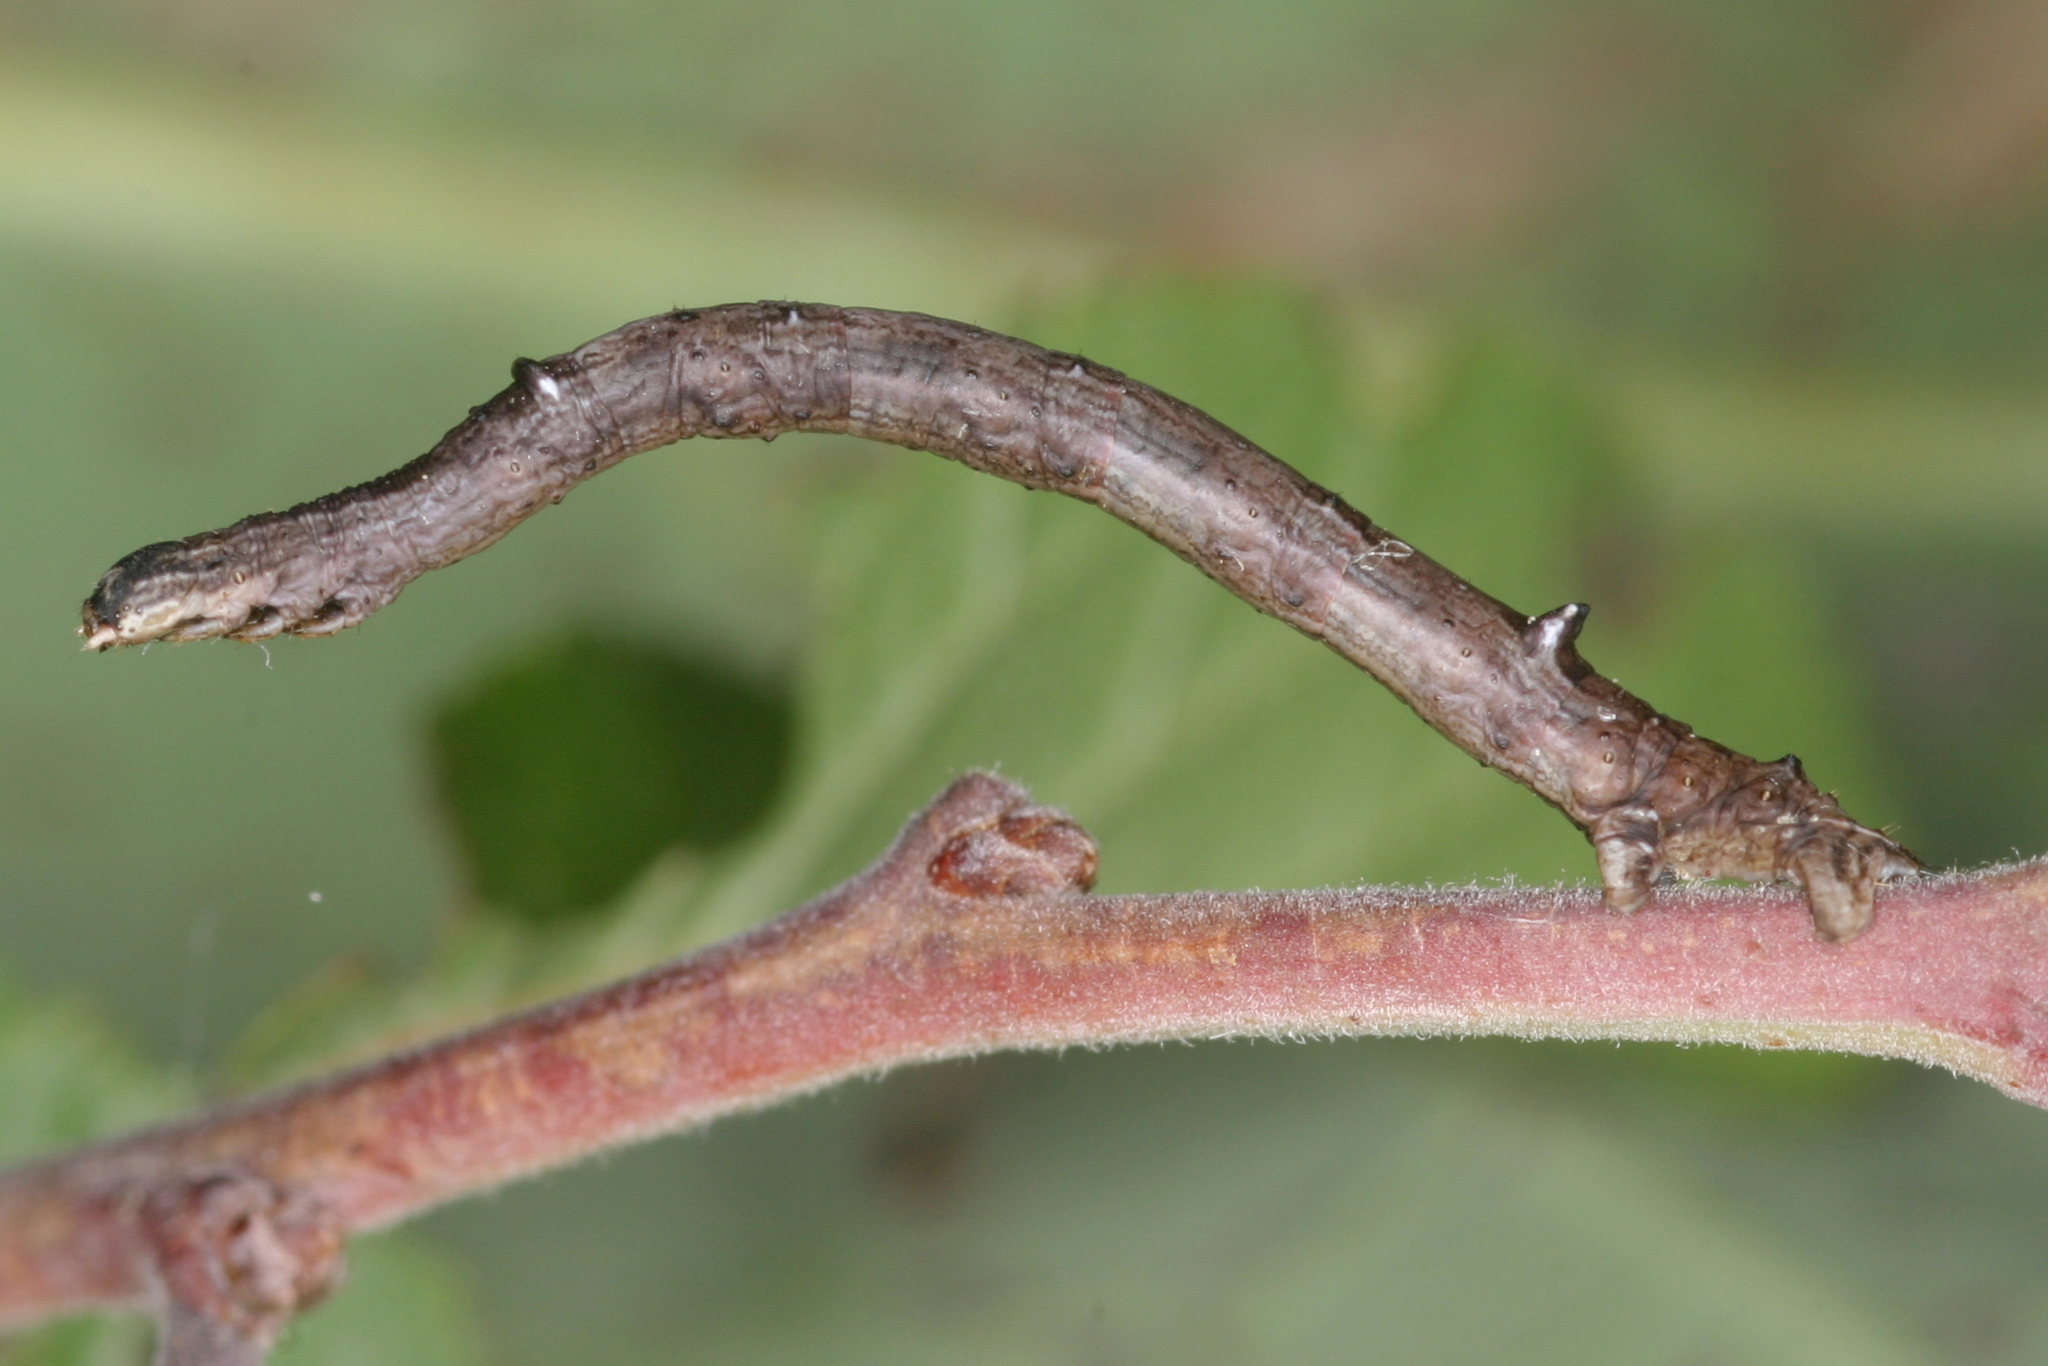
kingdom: Animalia
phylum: Arthropoda
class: Insecta
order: Lepidoptera
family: Geometridae
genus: Angerona
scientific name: Angerona prunaria
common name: Orange moth
